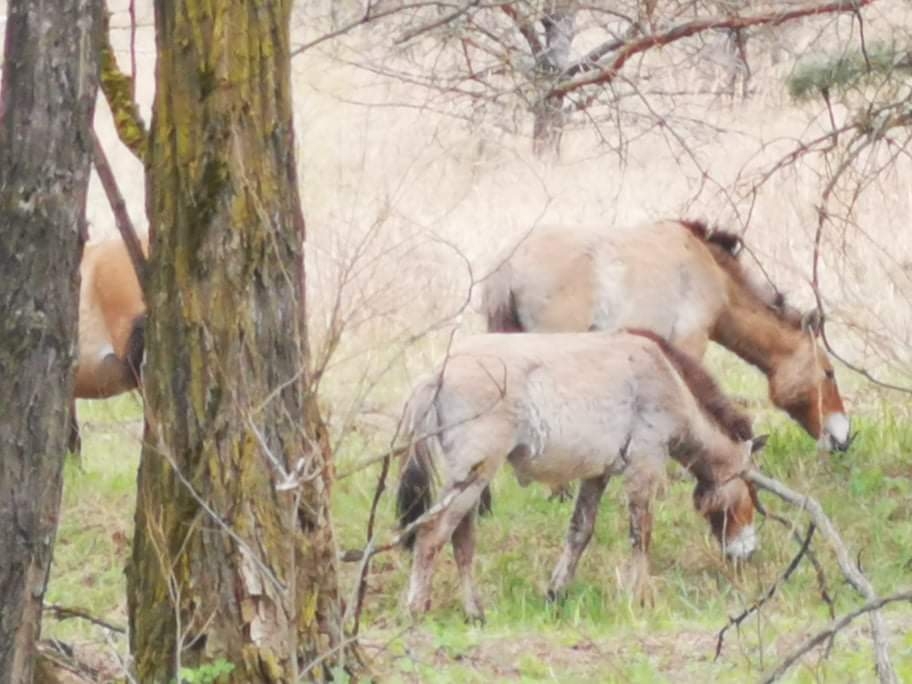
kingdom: Animalia
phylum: Chordata
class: Mammalia
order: Perissodactyla
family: Equidae
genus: Equus
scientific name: Equus przewalskii
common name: Przewalski's horse
